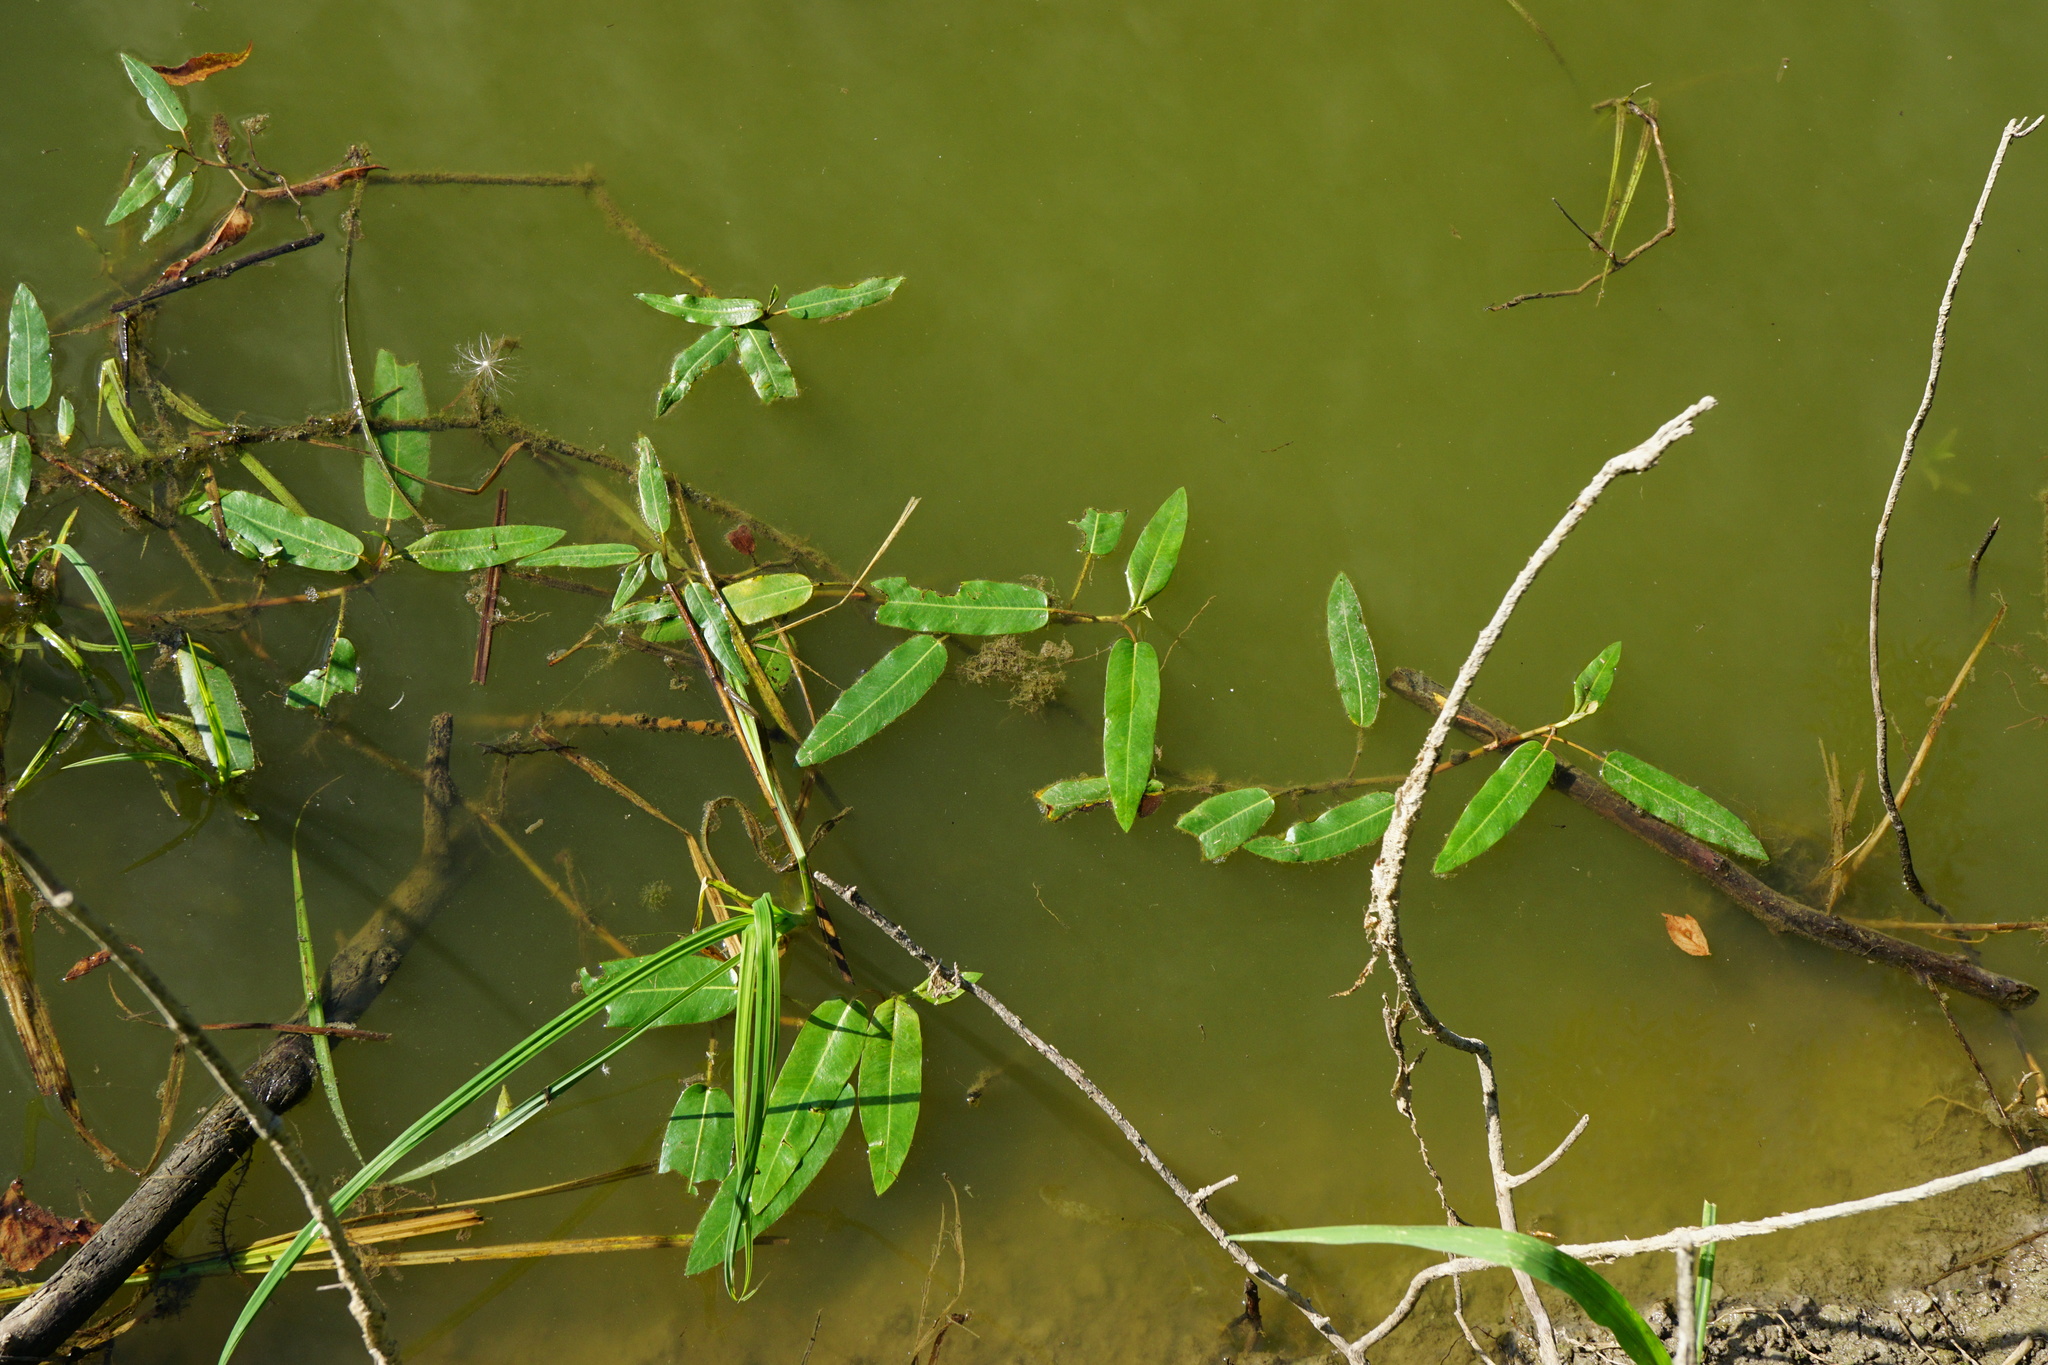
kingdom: Plantae
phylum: Tracheophyta
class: Magnoliopsida
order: Caryophyllales
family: Polygonaceae
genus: Persicaria
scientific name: Persicaria amphibia
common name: Amphibious bistort
